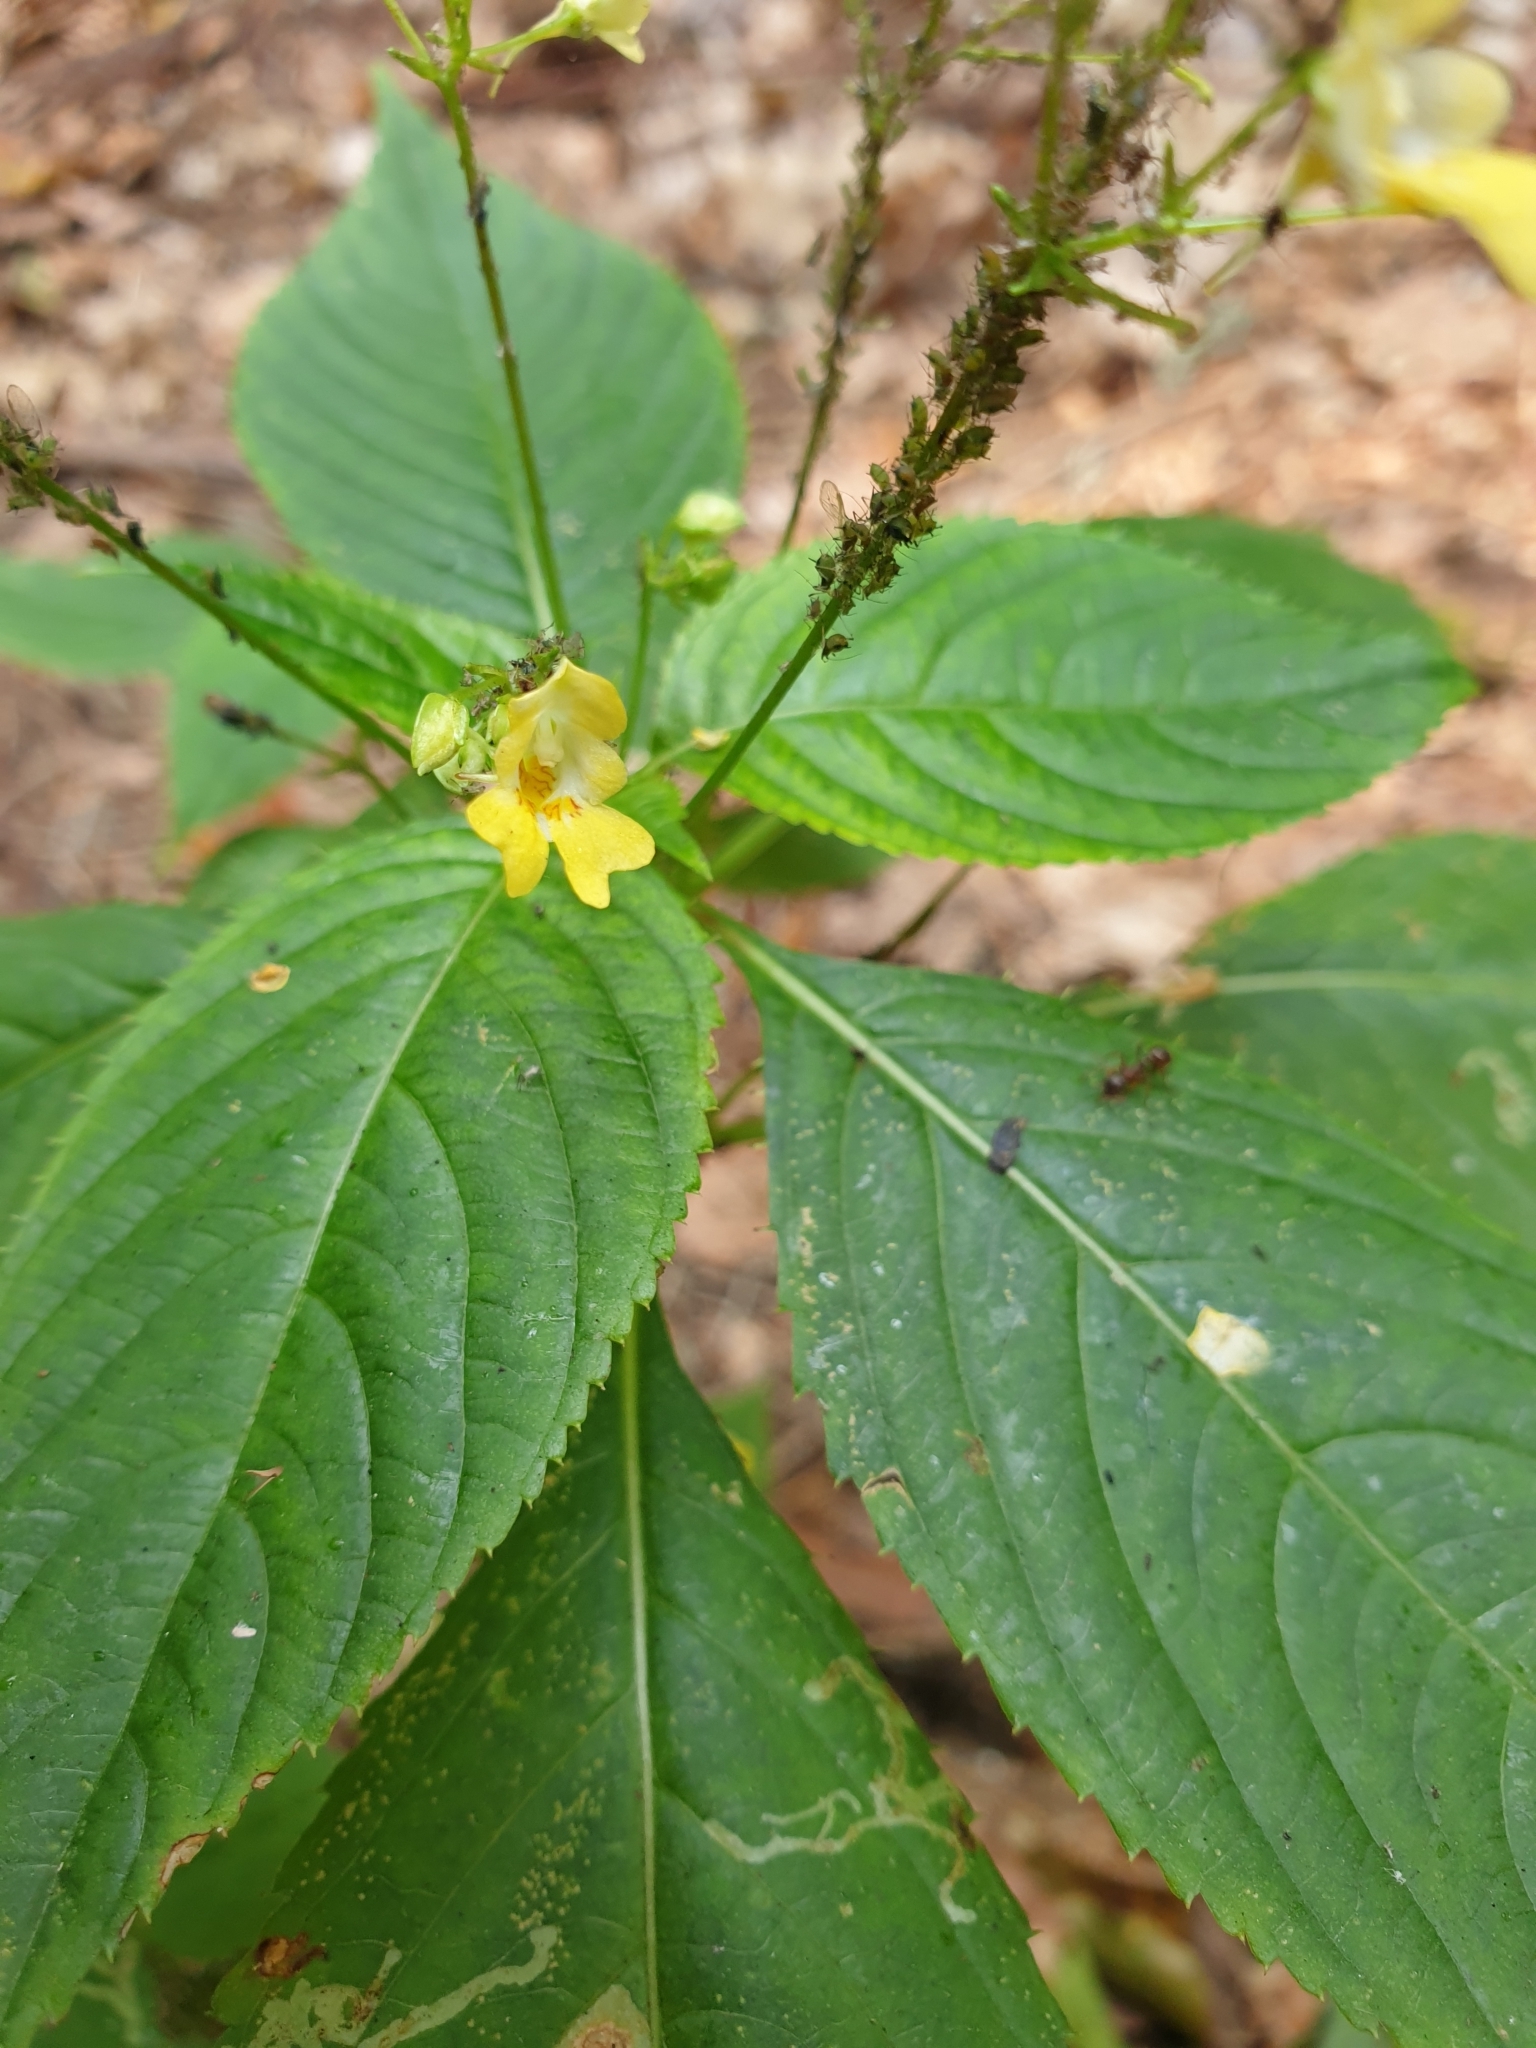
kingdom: Plantae
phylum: Tracheophyta
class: Magnoliopsida
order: Ericales
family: Balsaminaceae
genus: Impatiens
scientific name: Impatiens parviflora
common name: Small balsam
